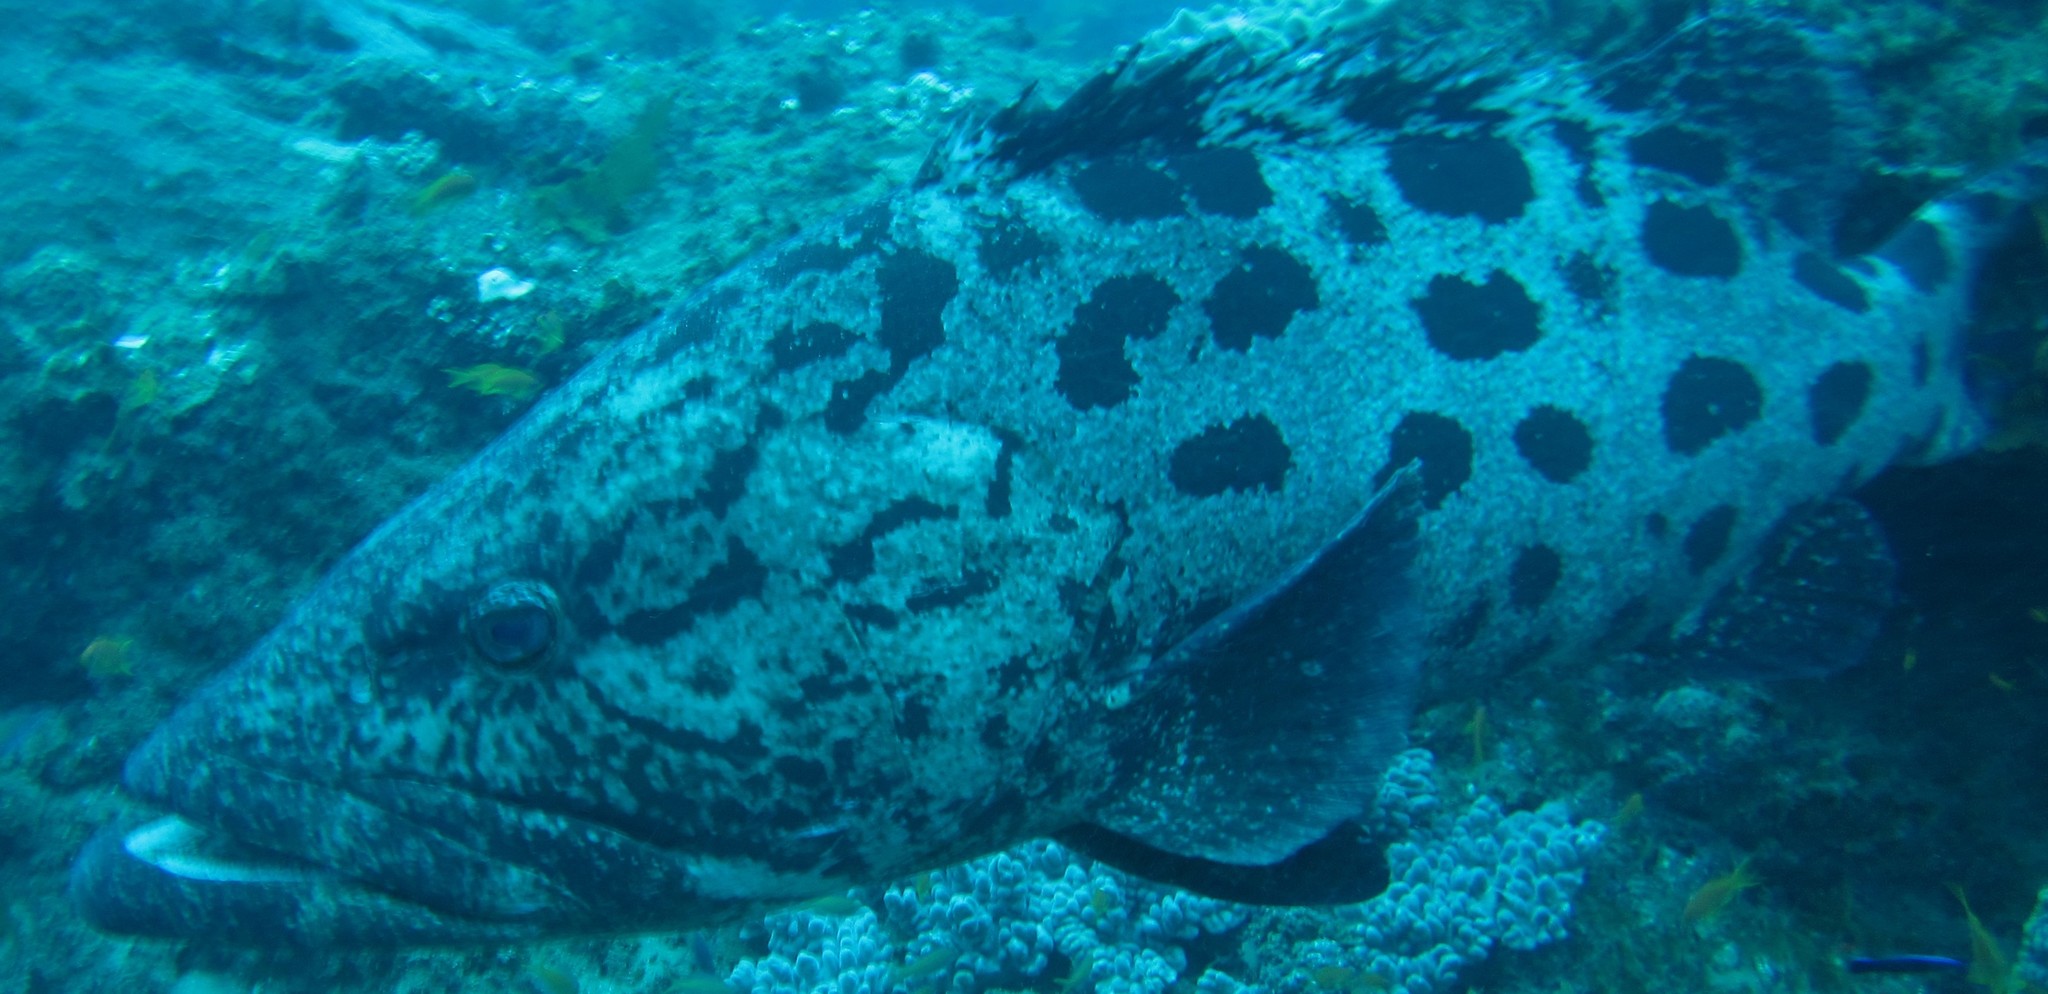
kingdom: Animalia
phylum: Chordata
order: Perciformes
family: Serranidae
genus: Epinephelus
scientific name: Epinephelus tukula
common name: Potato cod
